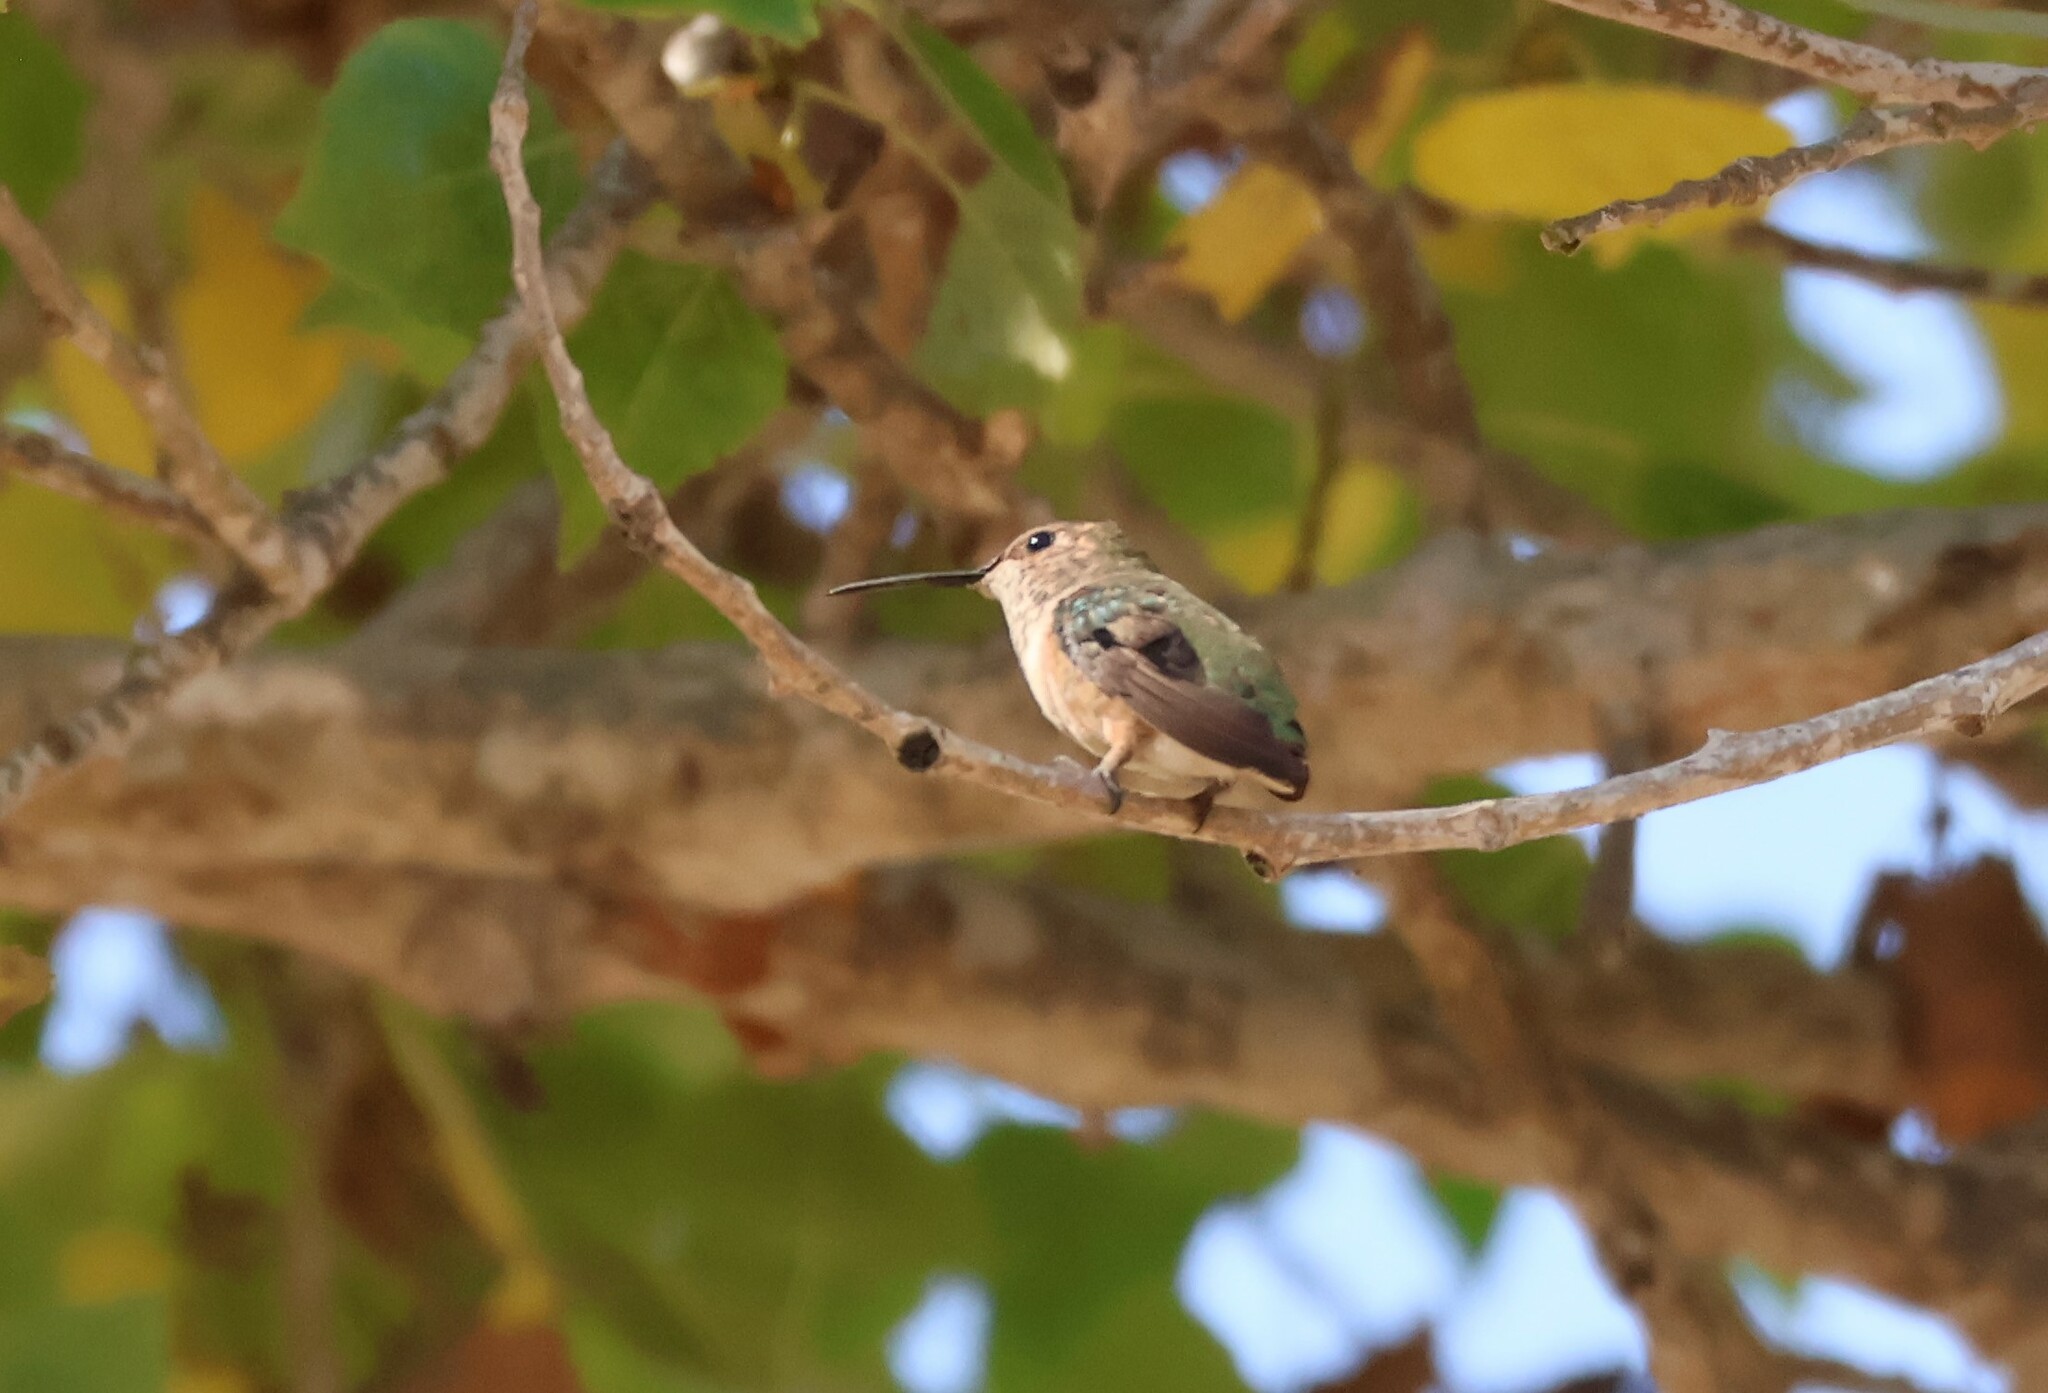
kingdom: Animalia
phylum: Chordata
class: Aves
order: Apodiformes
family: Trochilidae
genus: Selasphorus
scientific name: Selasphorus sasin
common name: Allen's hummingbird
